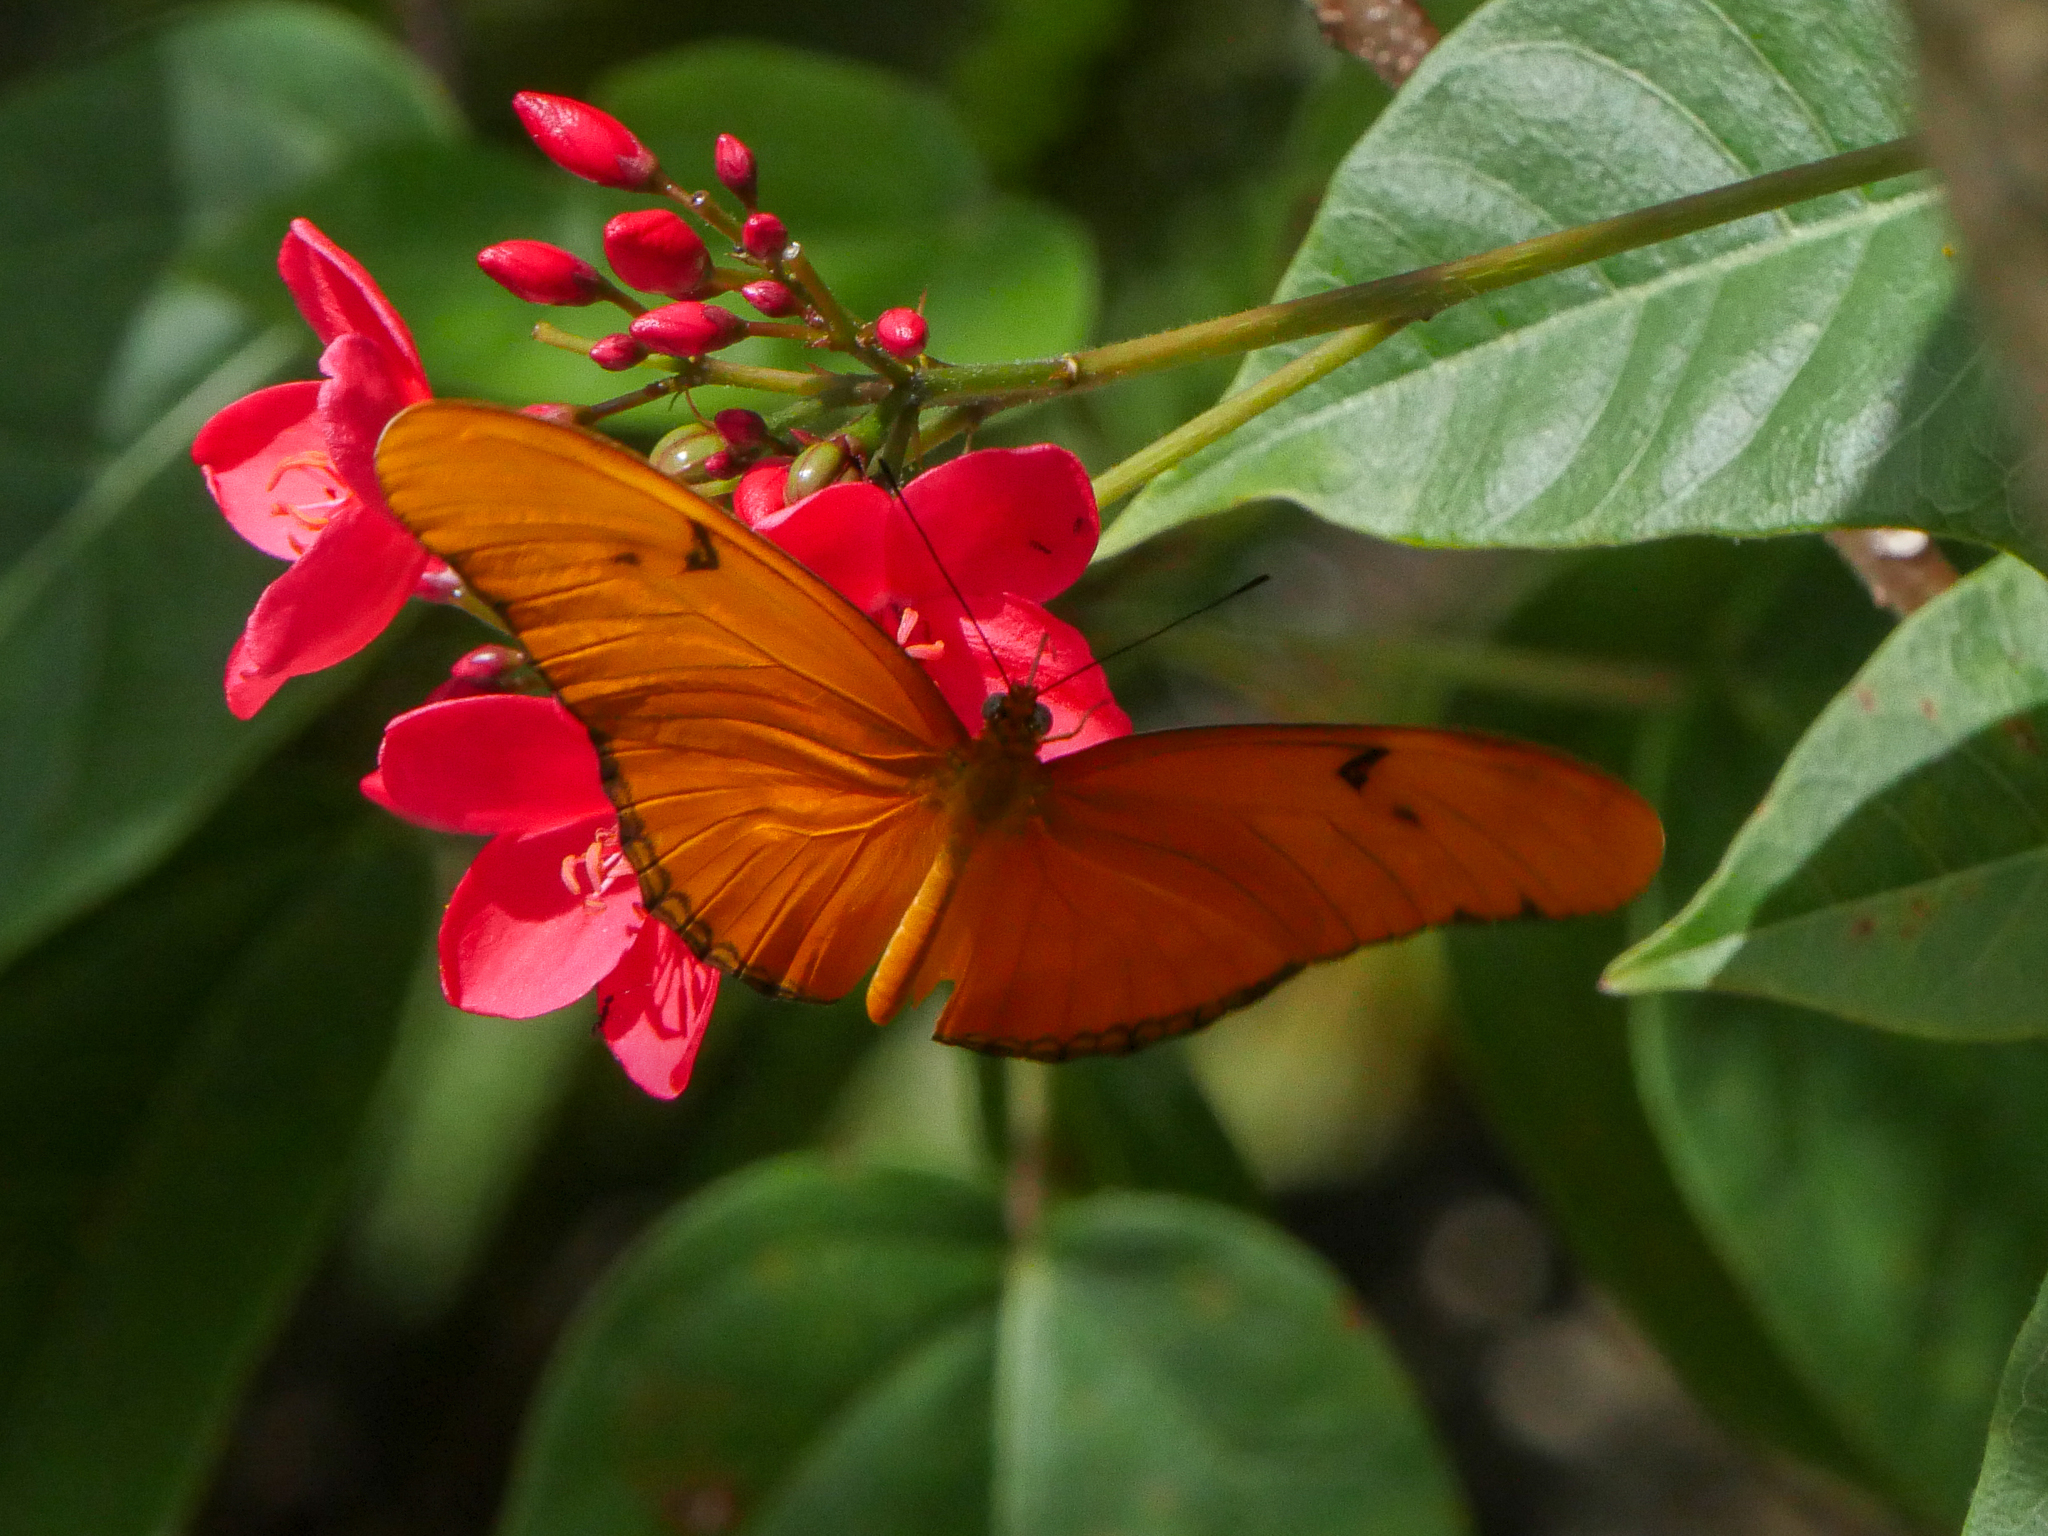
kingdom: Animalia
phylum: Arthropoda
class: Insecta
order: Lepidoptera
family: Nymphalidae
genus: Dryas
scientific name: Dryas iulia
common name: Flambeau
